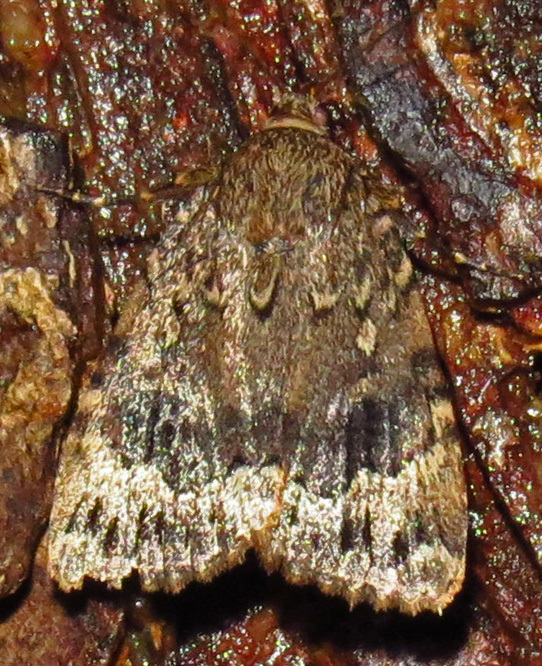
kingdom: Animalia
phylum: Arthropoda
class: Insecta
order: Lepidoptera
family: Noctuidae
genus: Amphipyra
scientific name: Amphipyra pyramidoides
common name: American copper underwing
